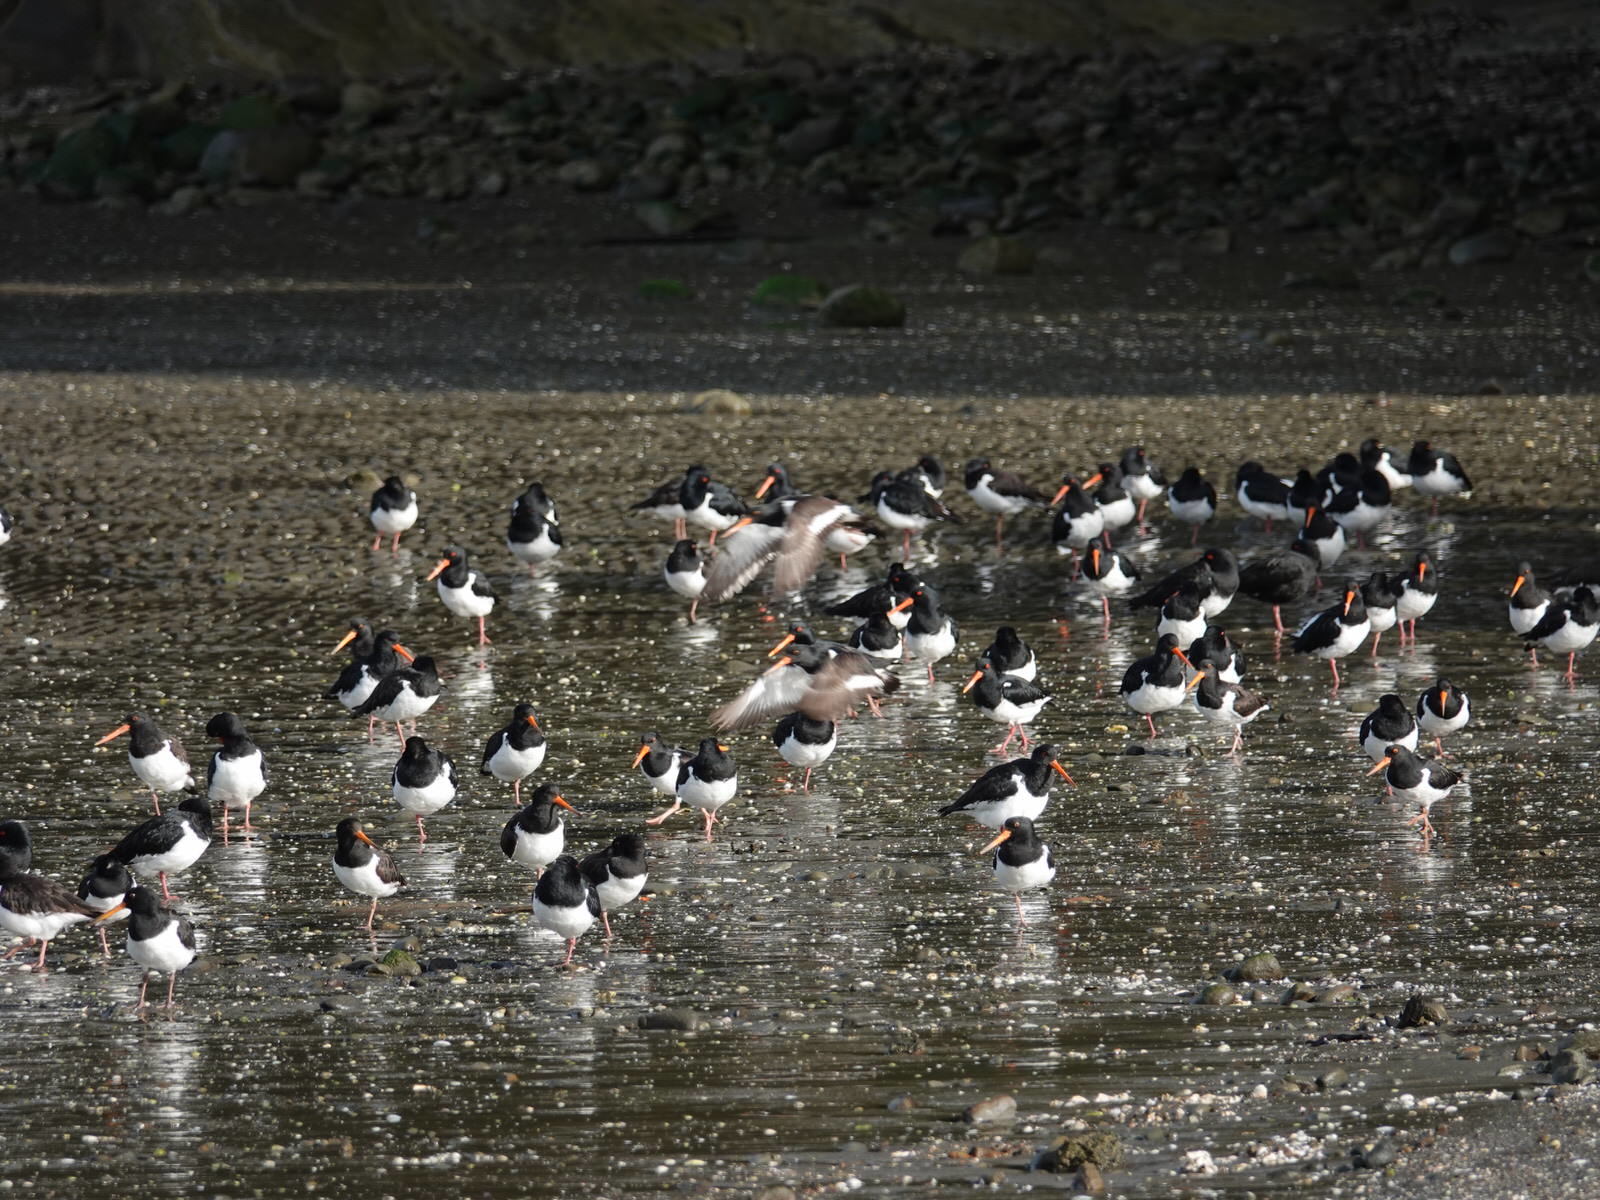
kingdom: Animalia
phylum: Chordata
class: Aves
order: Charadriiformes
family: Haematopodidae
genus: Haematopus
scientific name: Haematopus finschi
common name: South island oystercatcher
